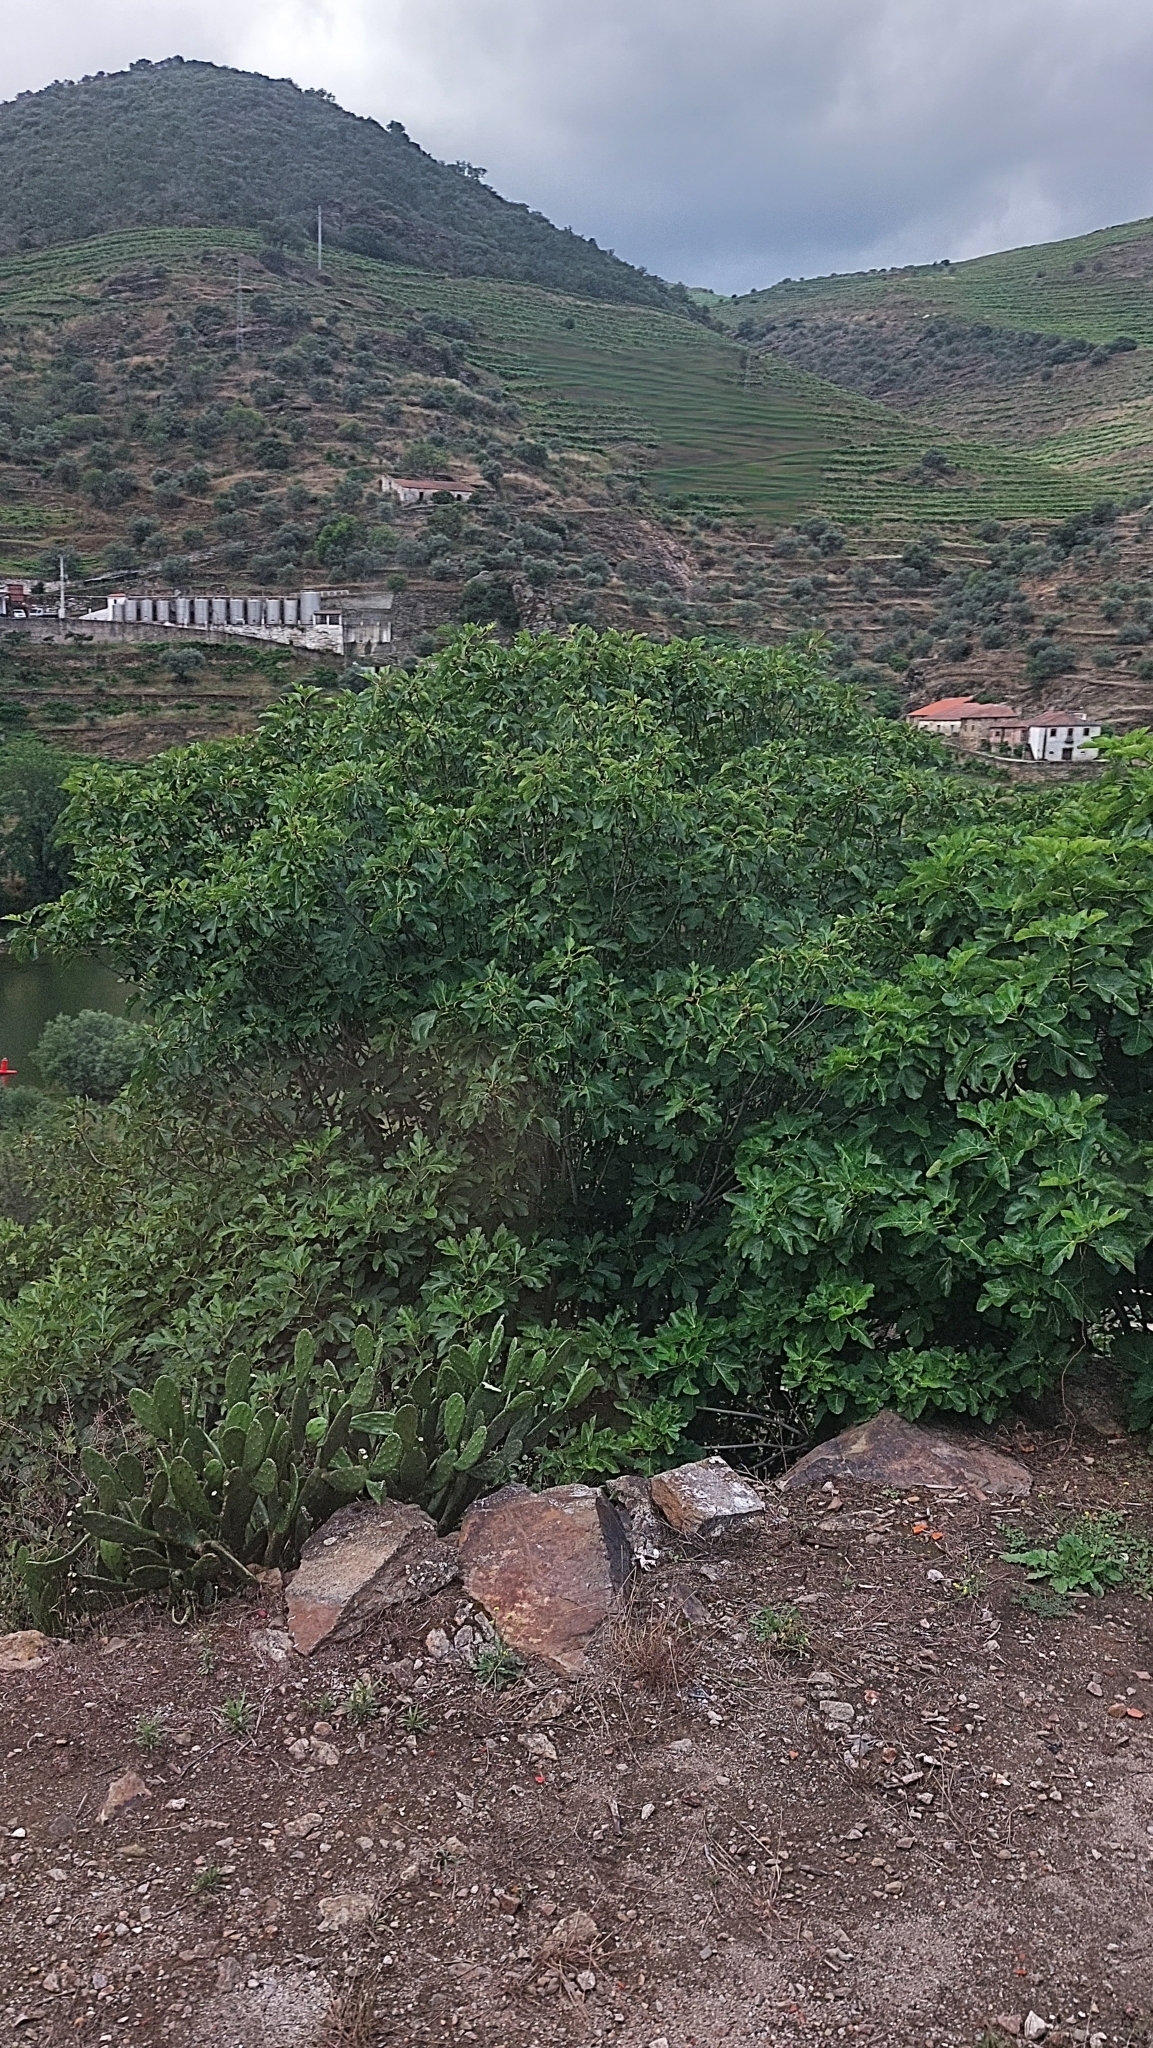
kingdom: Plantae
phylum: Tracheophyta
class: Magnoliopsida
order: Rosales
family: Moraceae
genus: Ficus
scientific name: Ficus carica
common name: Fig
